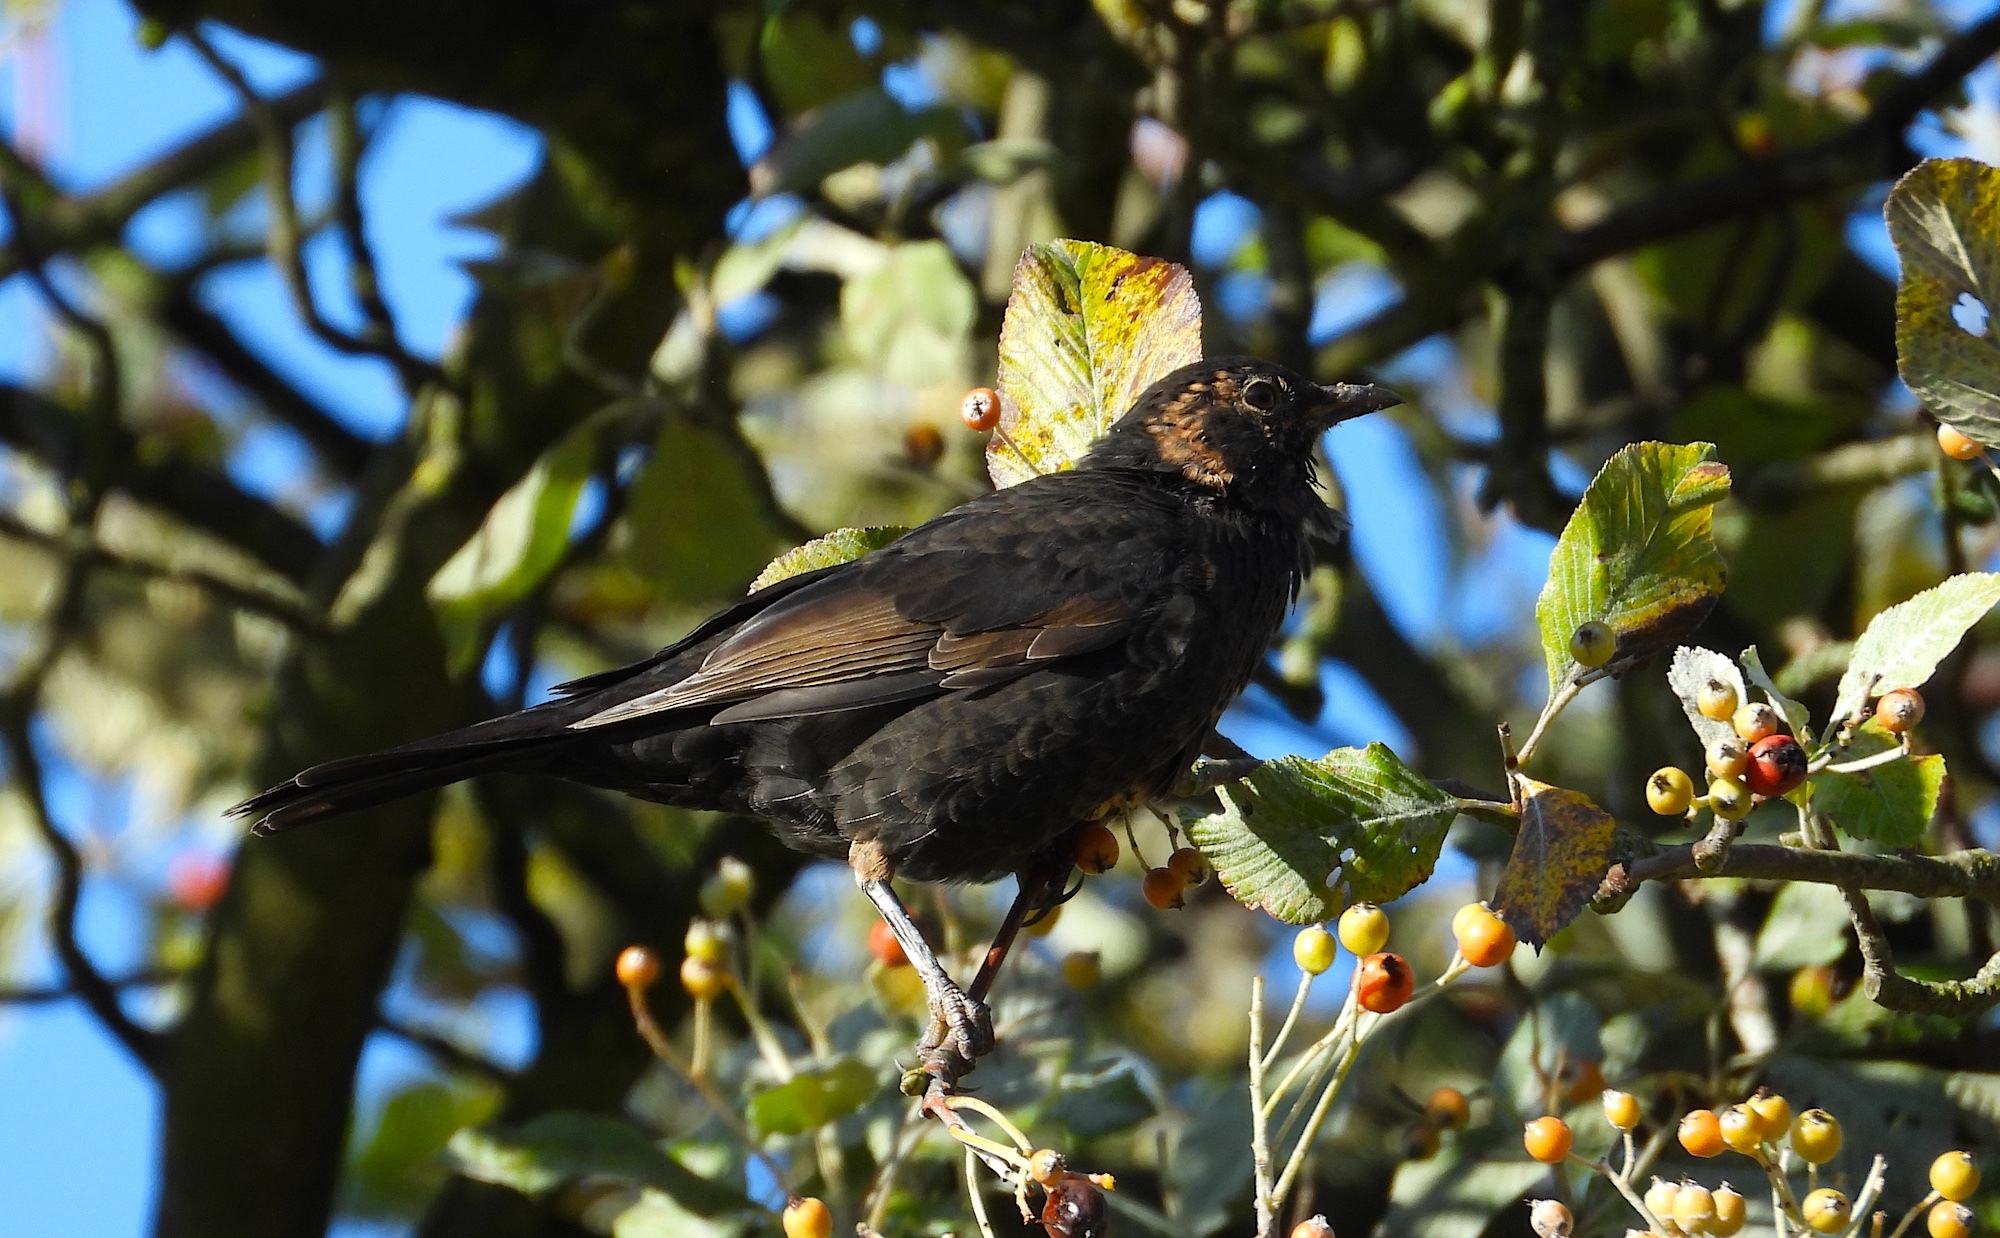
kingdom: Animalia
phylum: Chordata
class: Aves
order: Passeriformes
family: Turdidae
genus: Turdus
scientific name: Turdus merula
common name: Common blackbird
